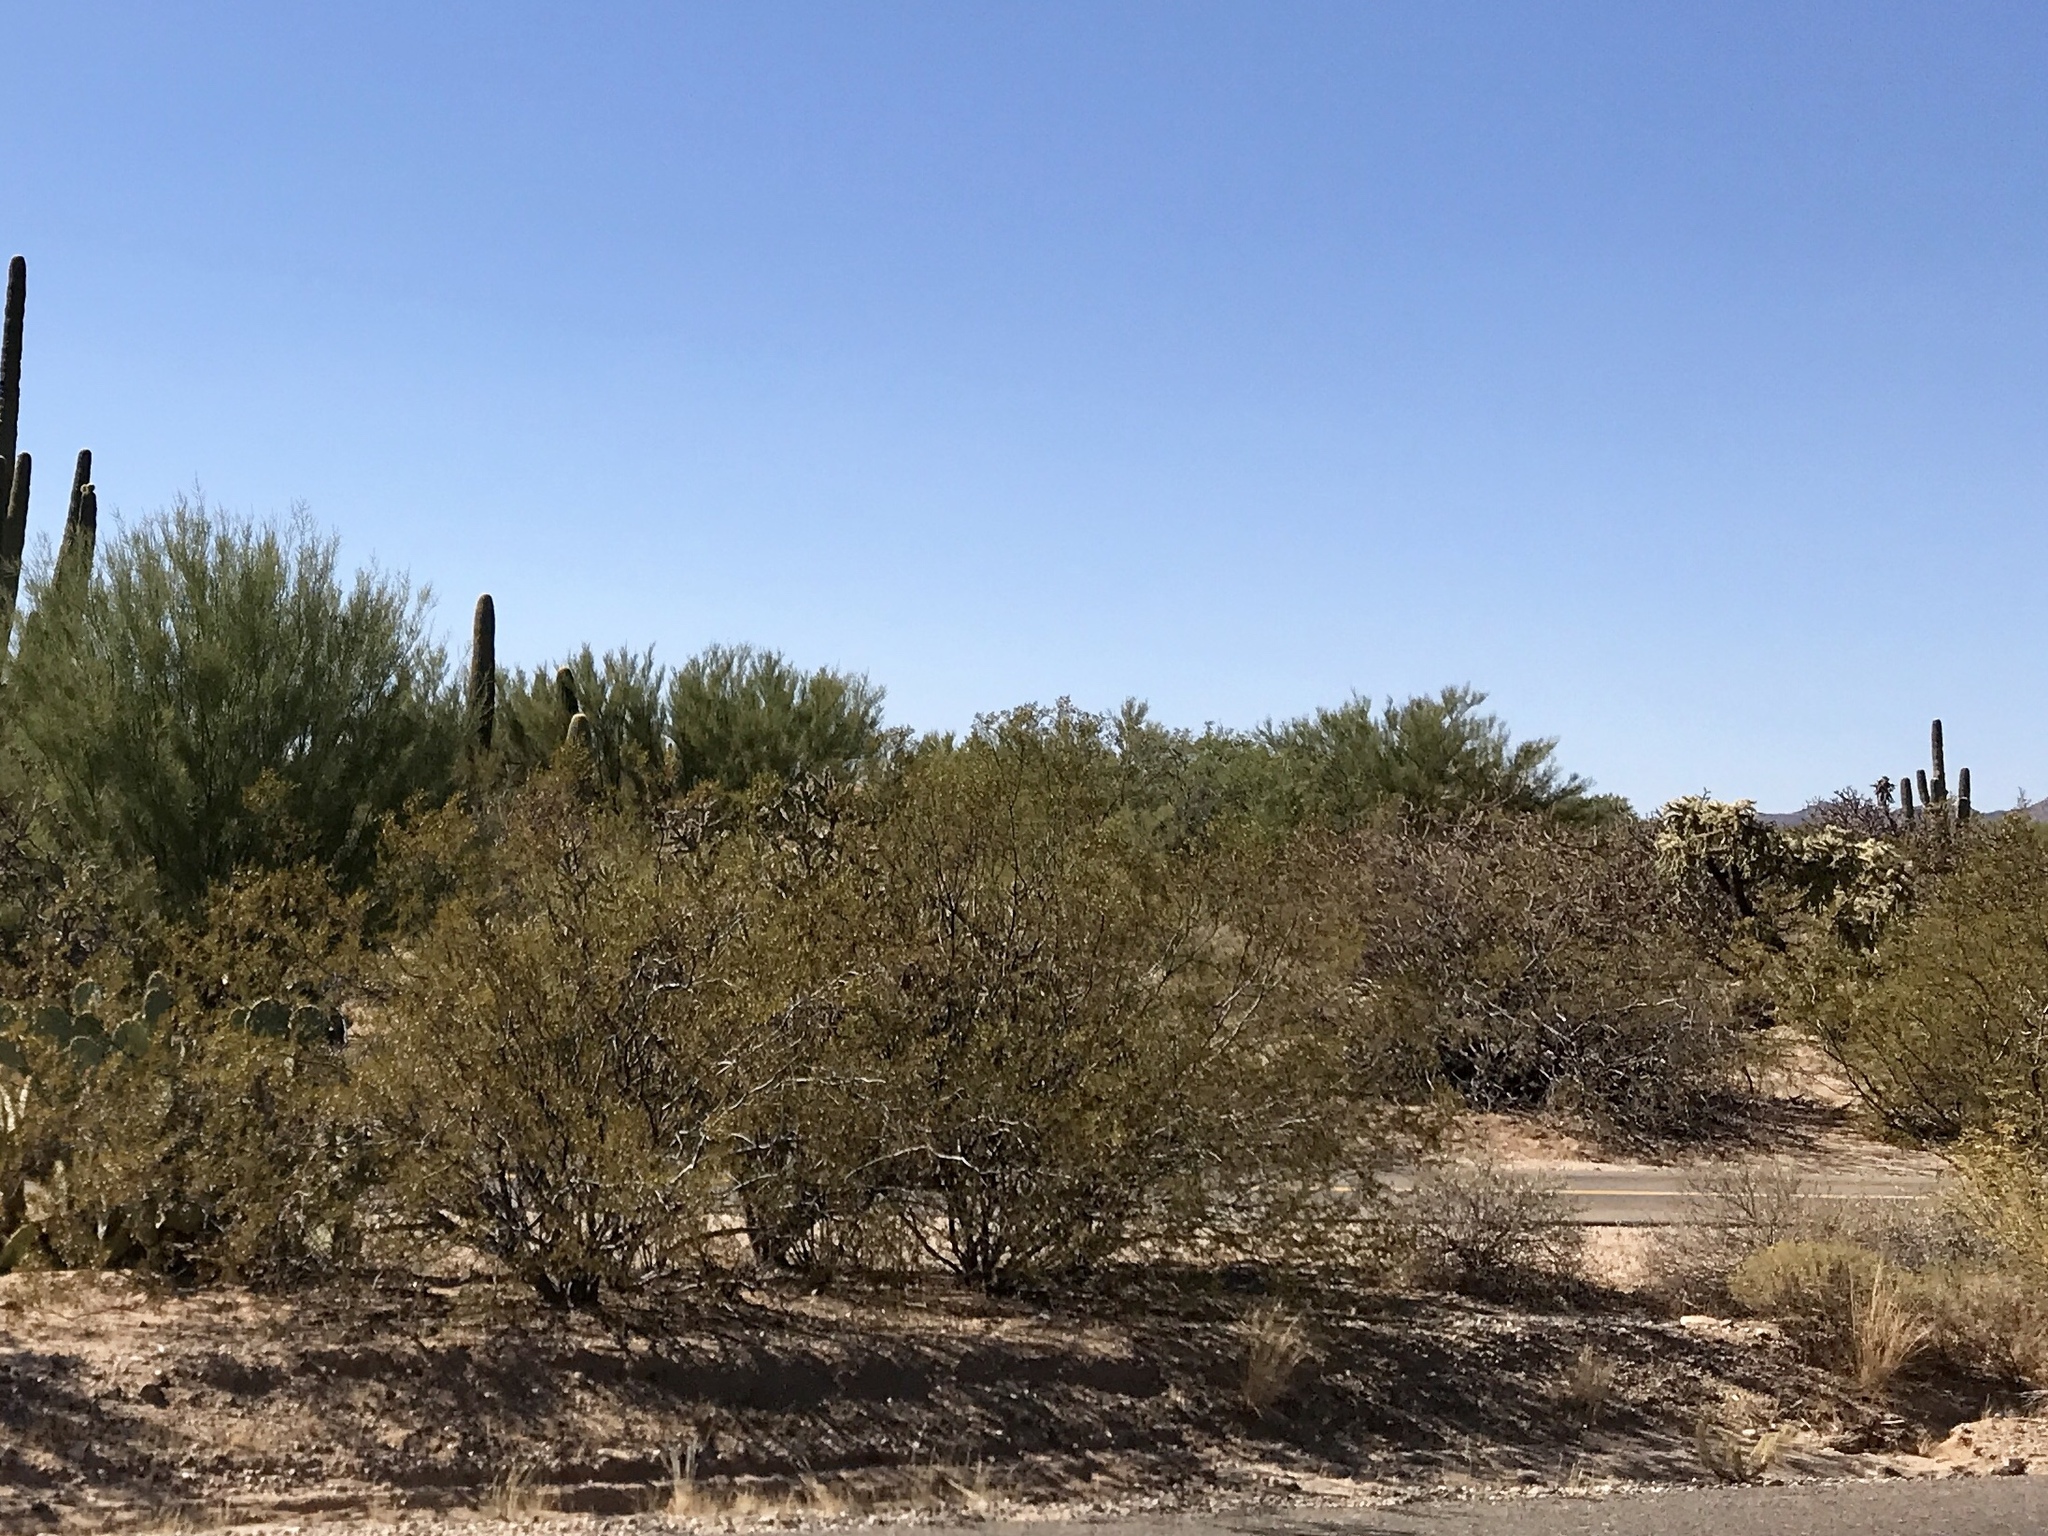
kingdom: Plantae
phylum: Tracheophyta
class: Magnoliopsida
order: Zygophyllales
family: Zygophyllaceae
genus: Larrea
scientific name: Larrea tridentata
